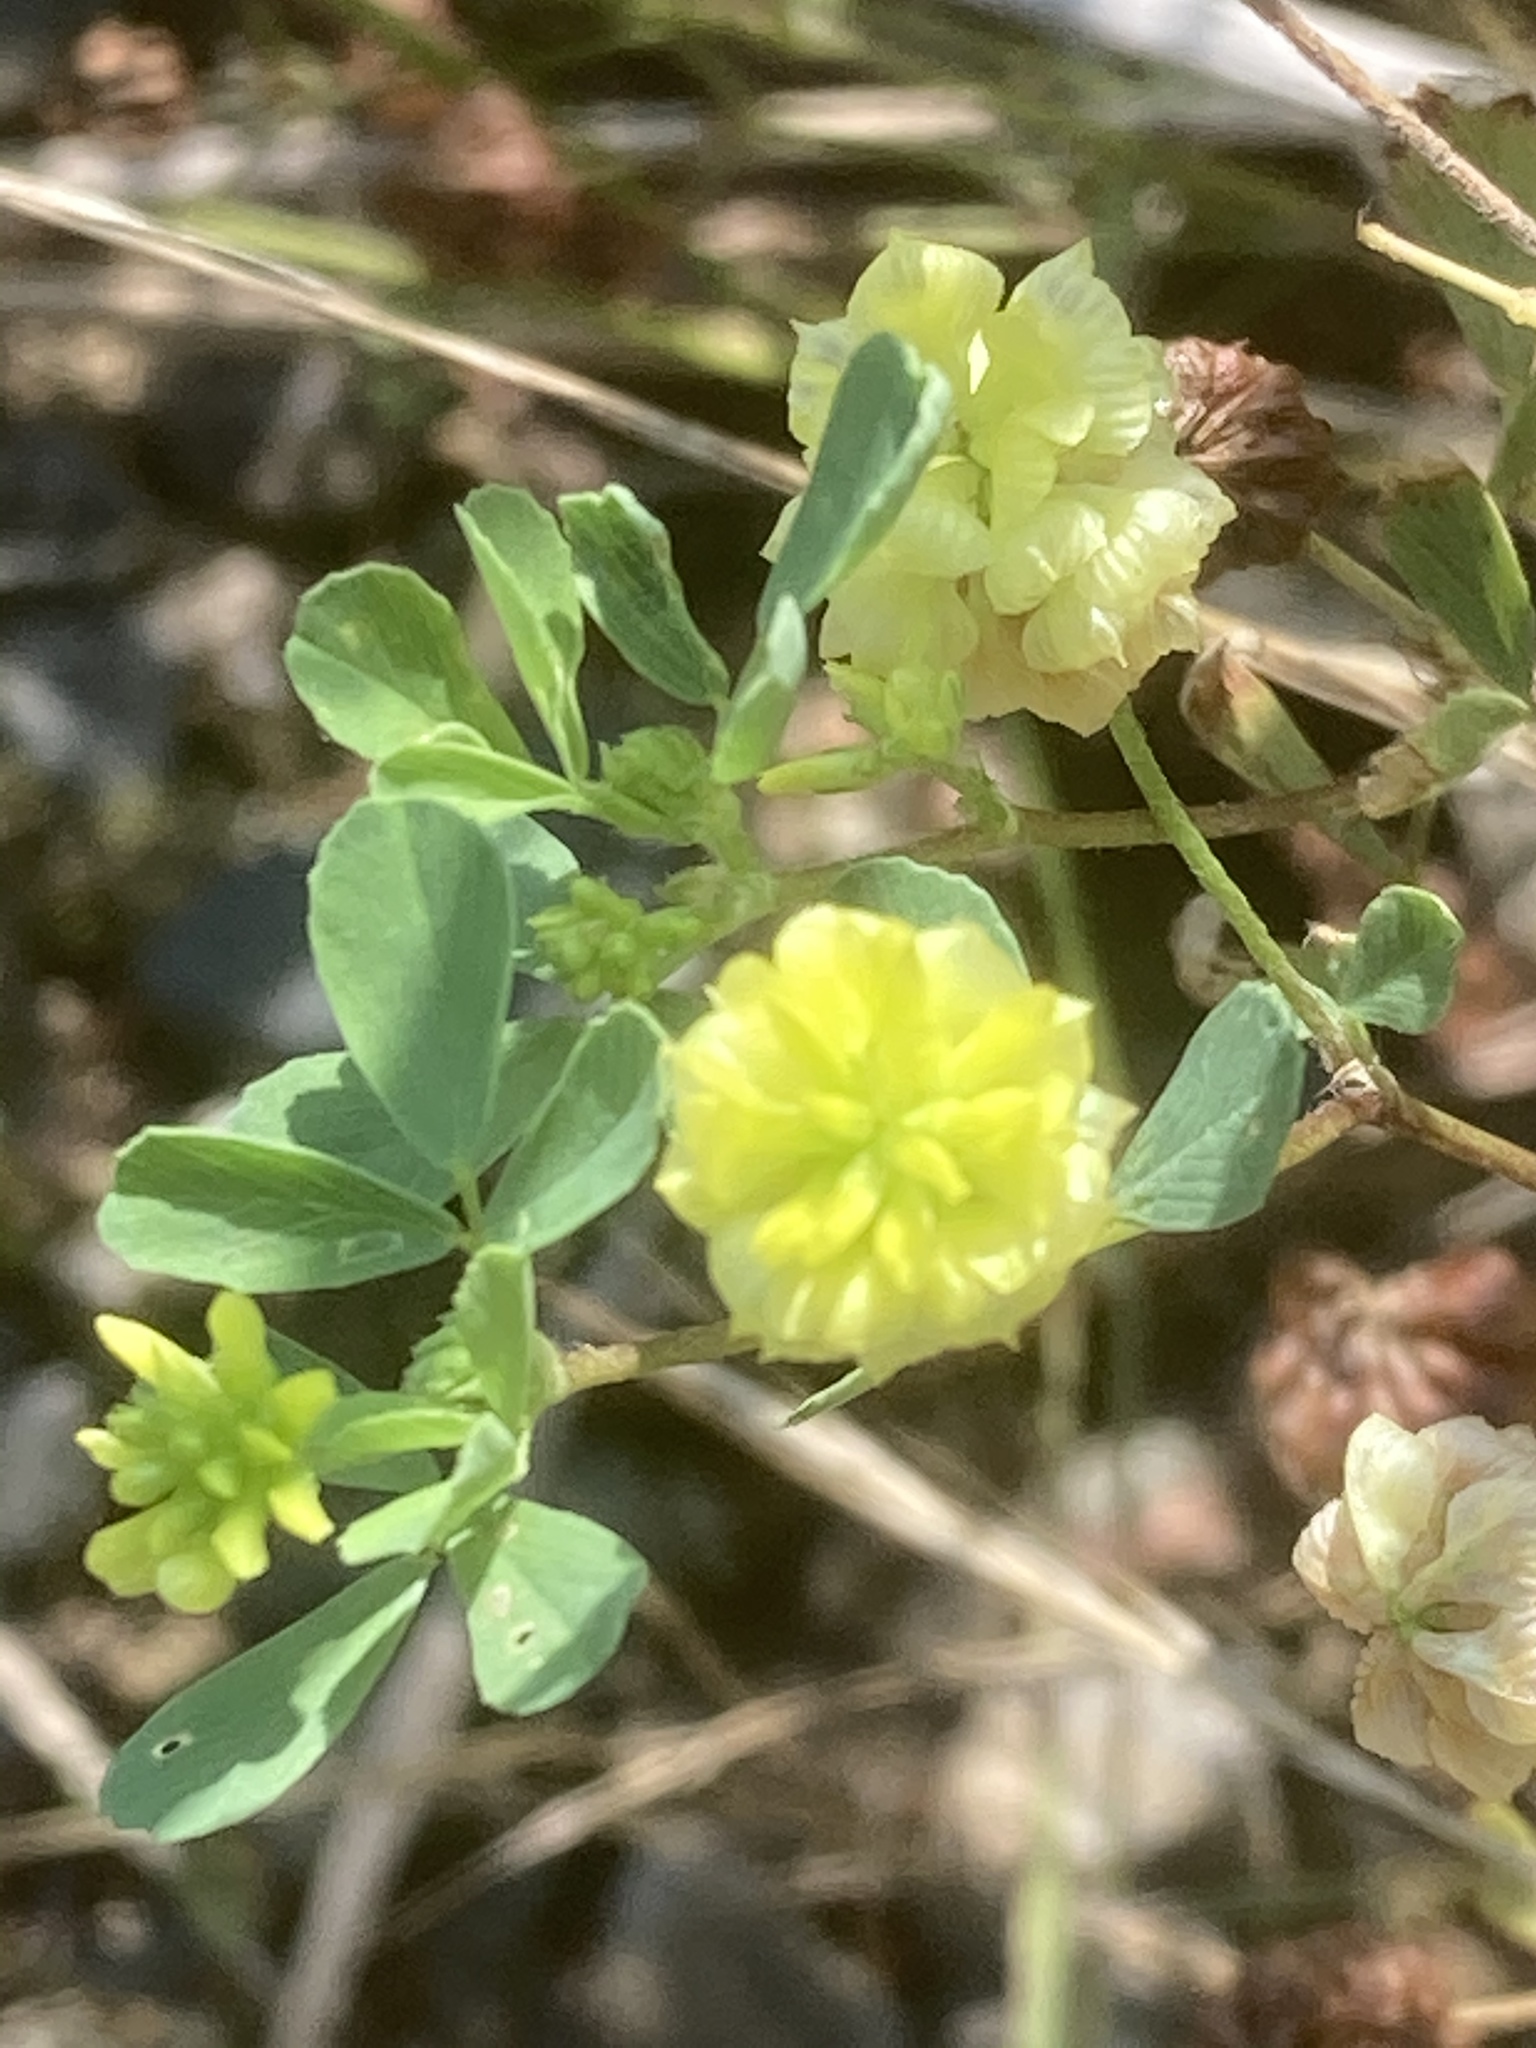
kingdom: Plantae
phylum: Tracheophyta
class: Magnoliopsida
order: Fabales
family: Fabaceae
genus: Trifolium
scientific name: Trifolium campestre
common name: Field clover
